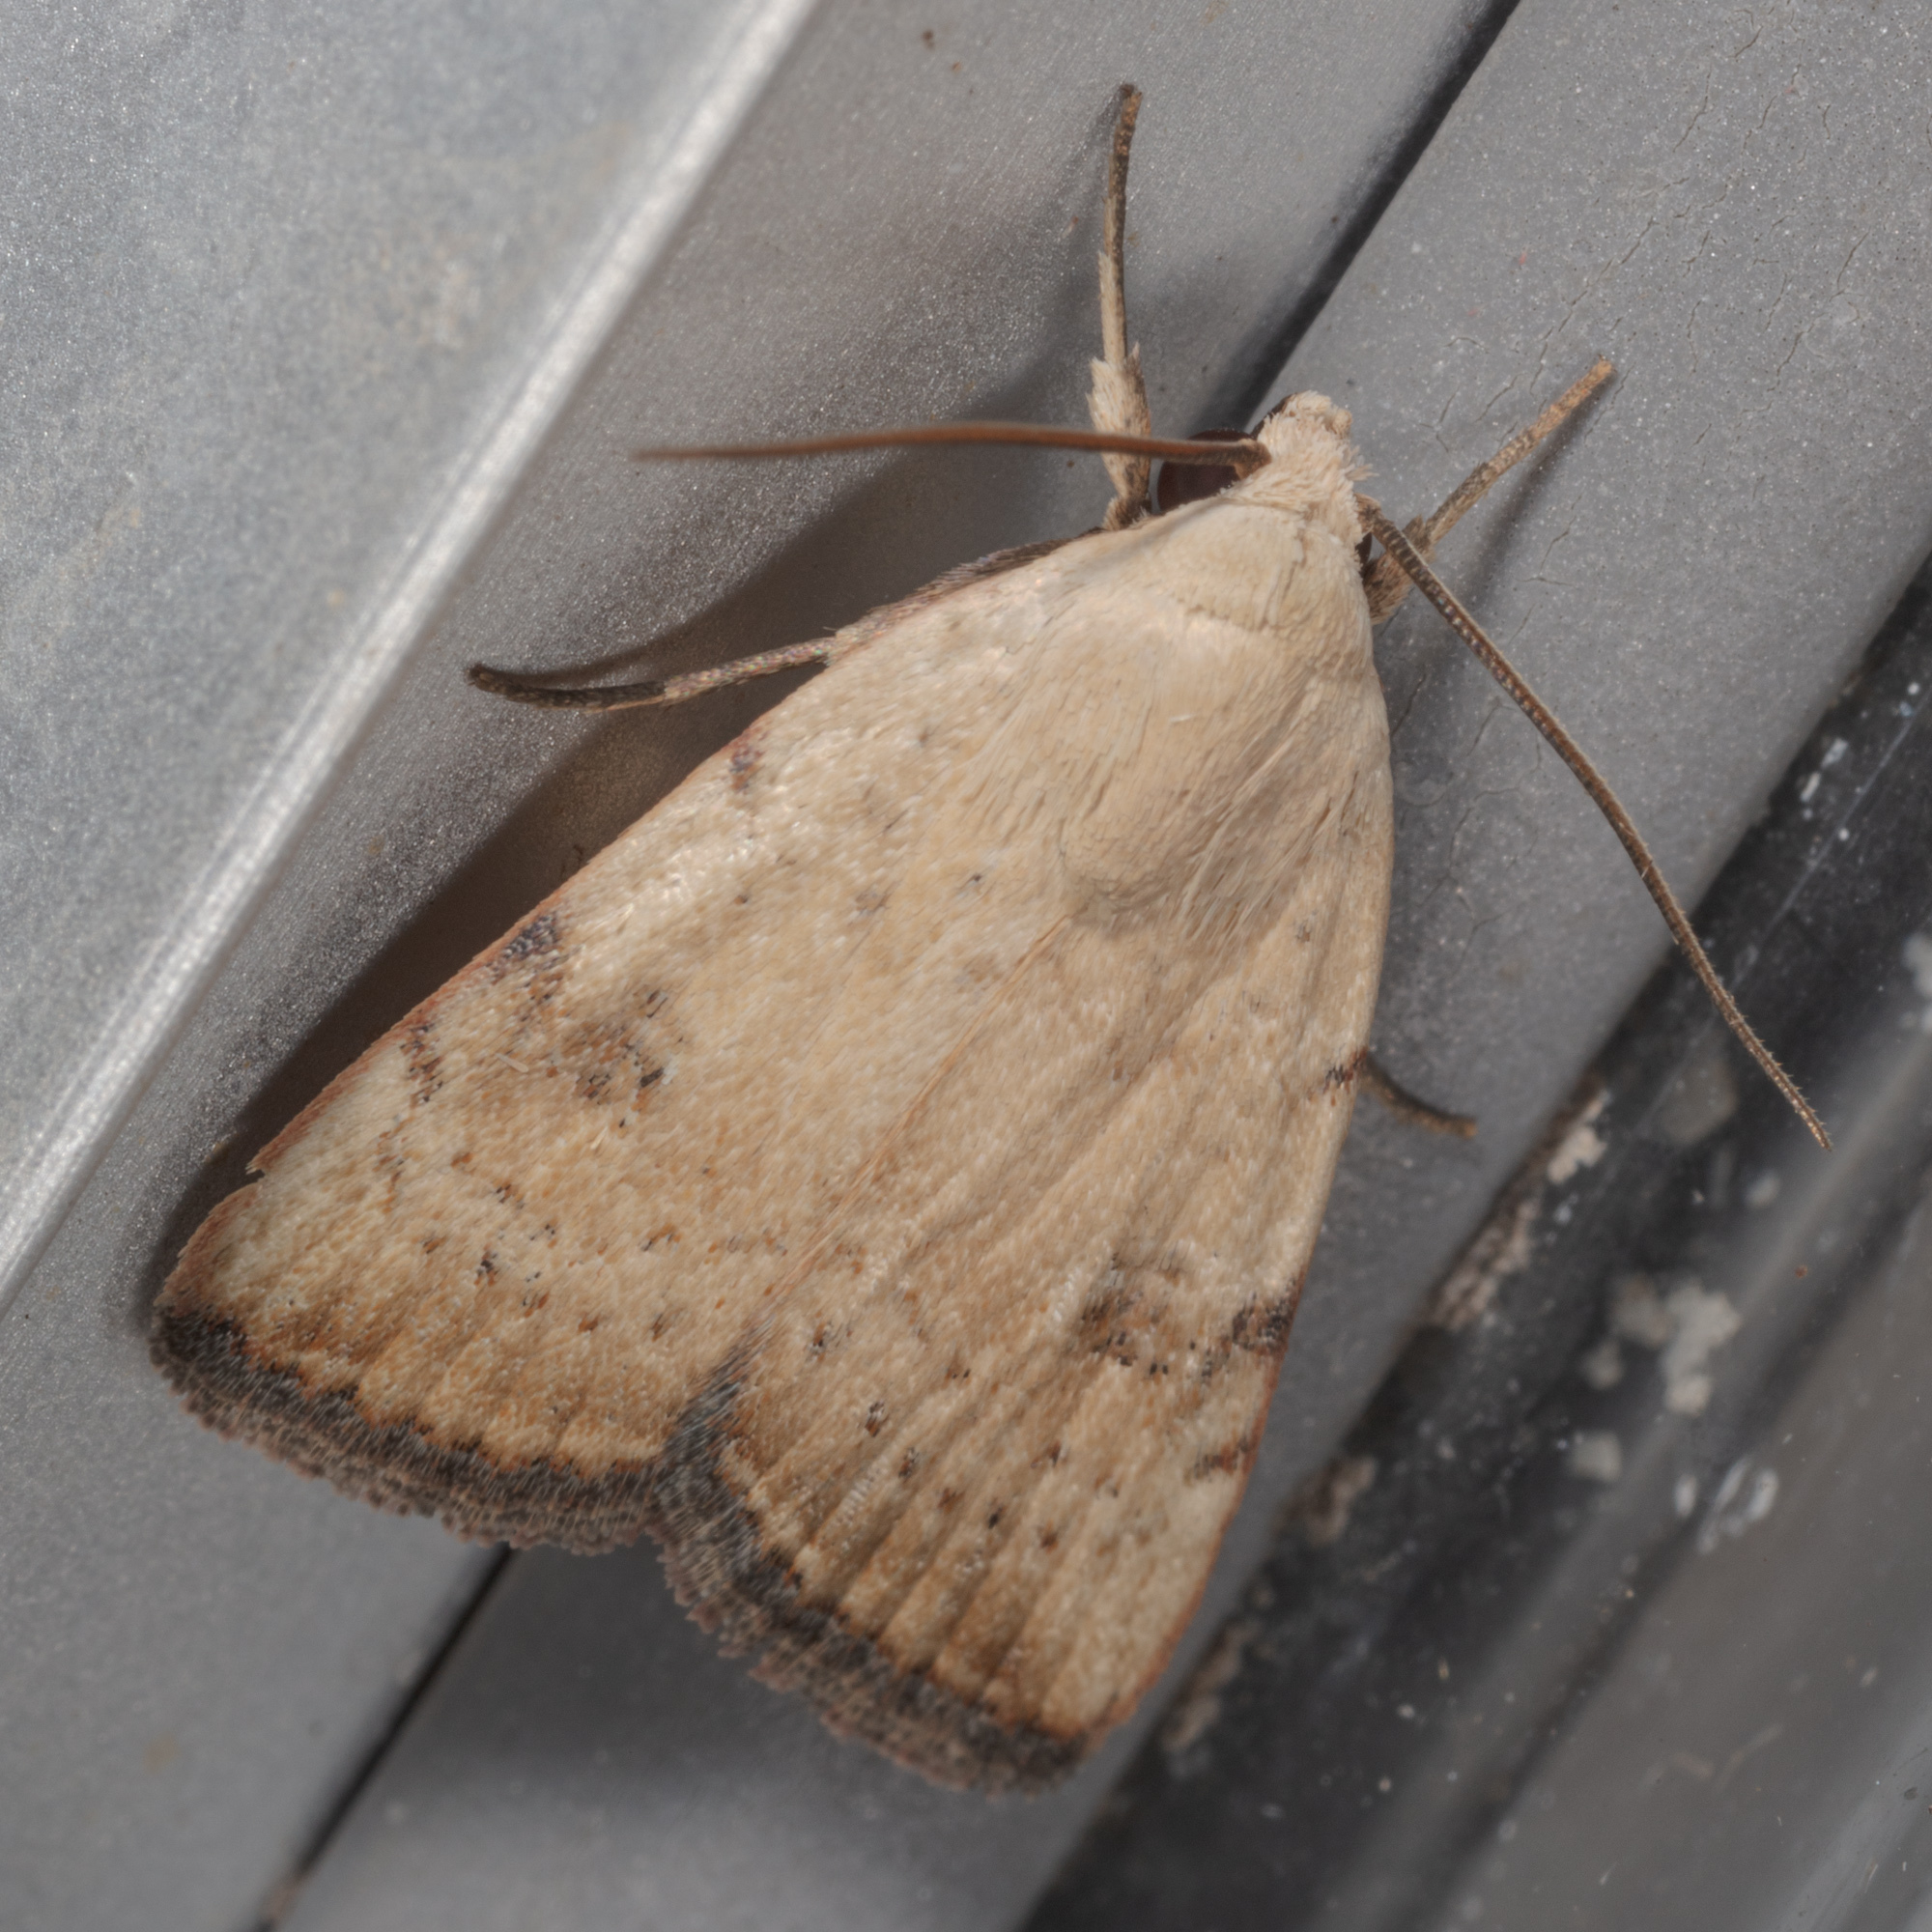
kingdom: Animalia
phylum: Arthropoda
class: Insecta
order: Lepidoptera
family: Noctuidae
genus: Micrathetis
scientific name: Micrathetis triplex
